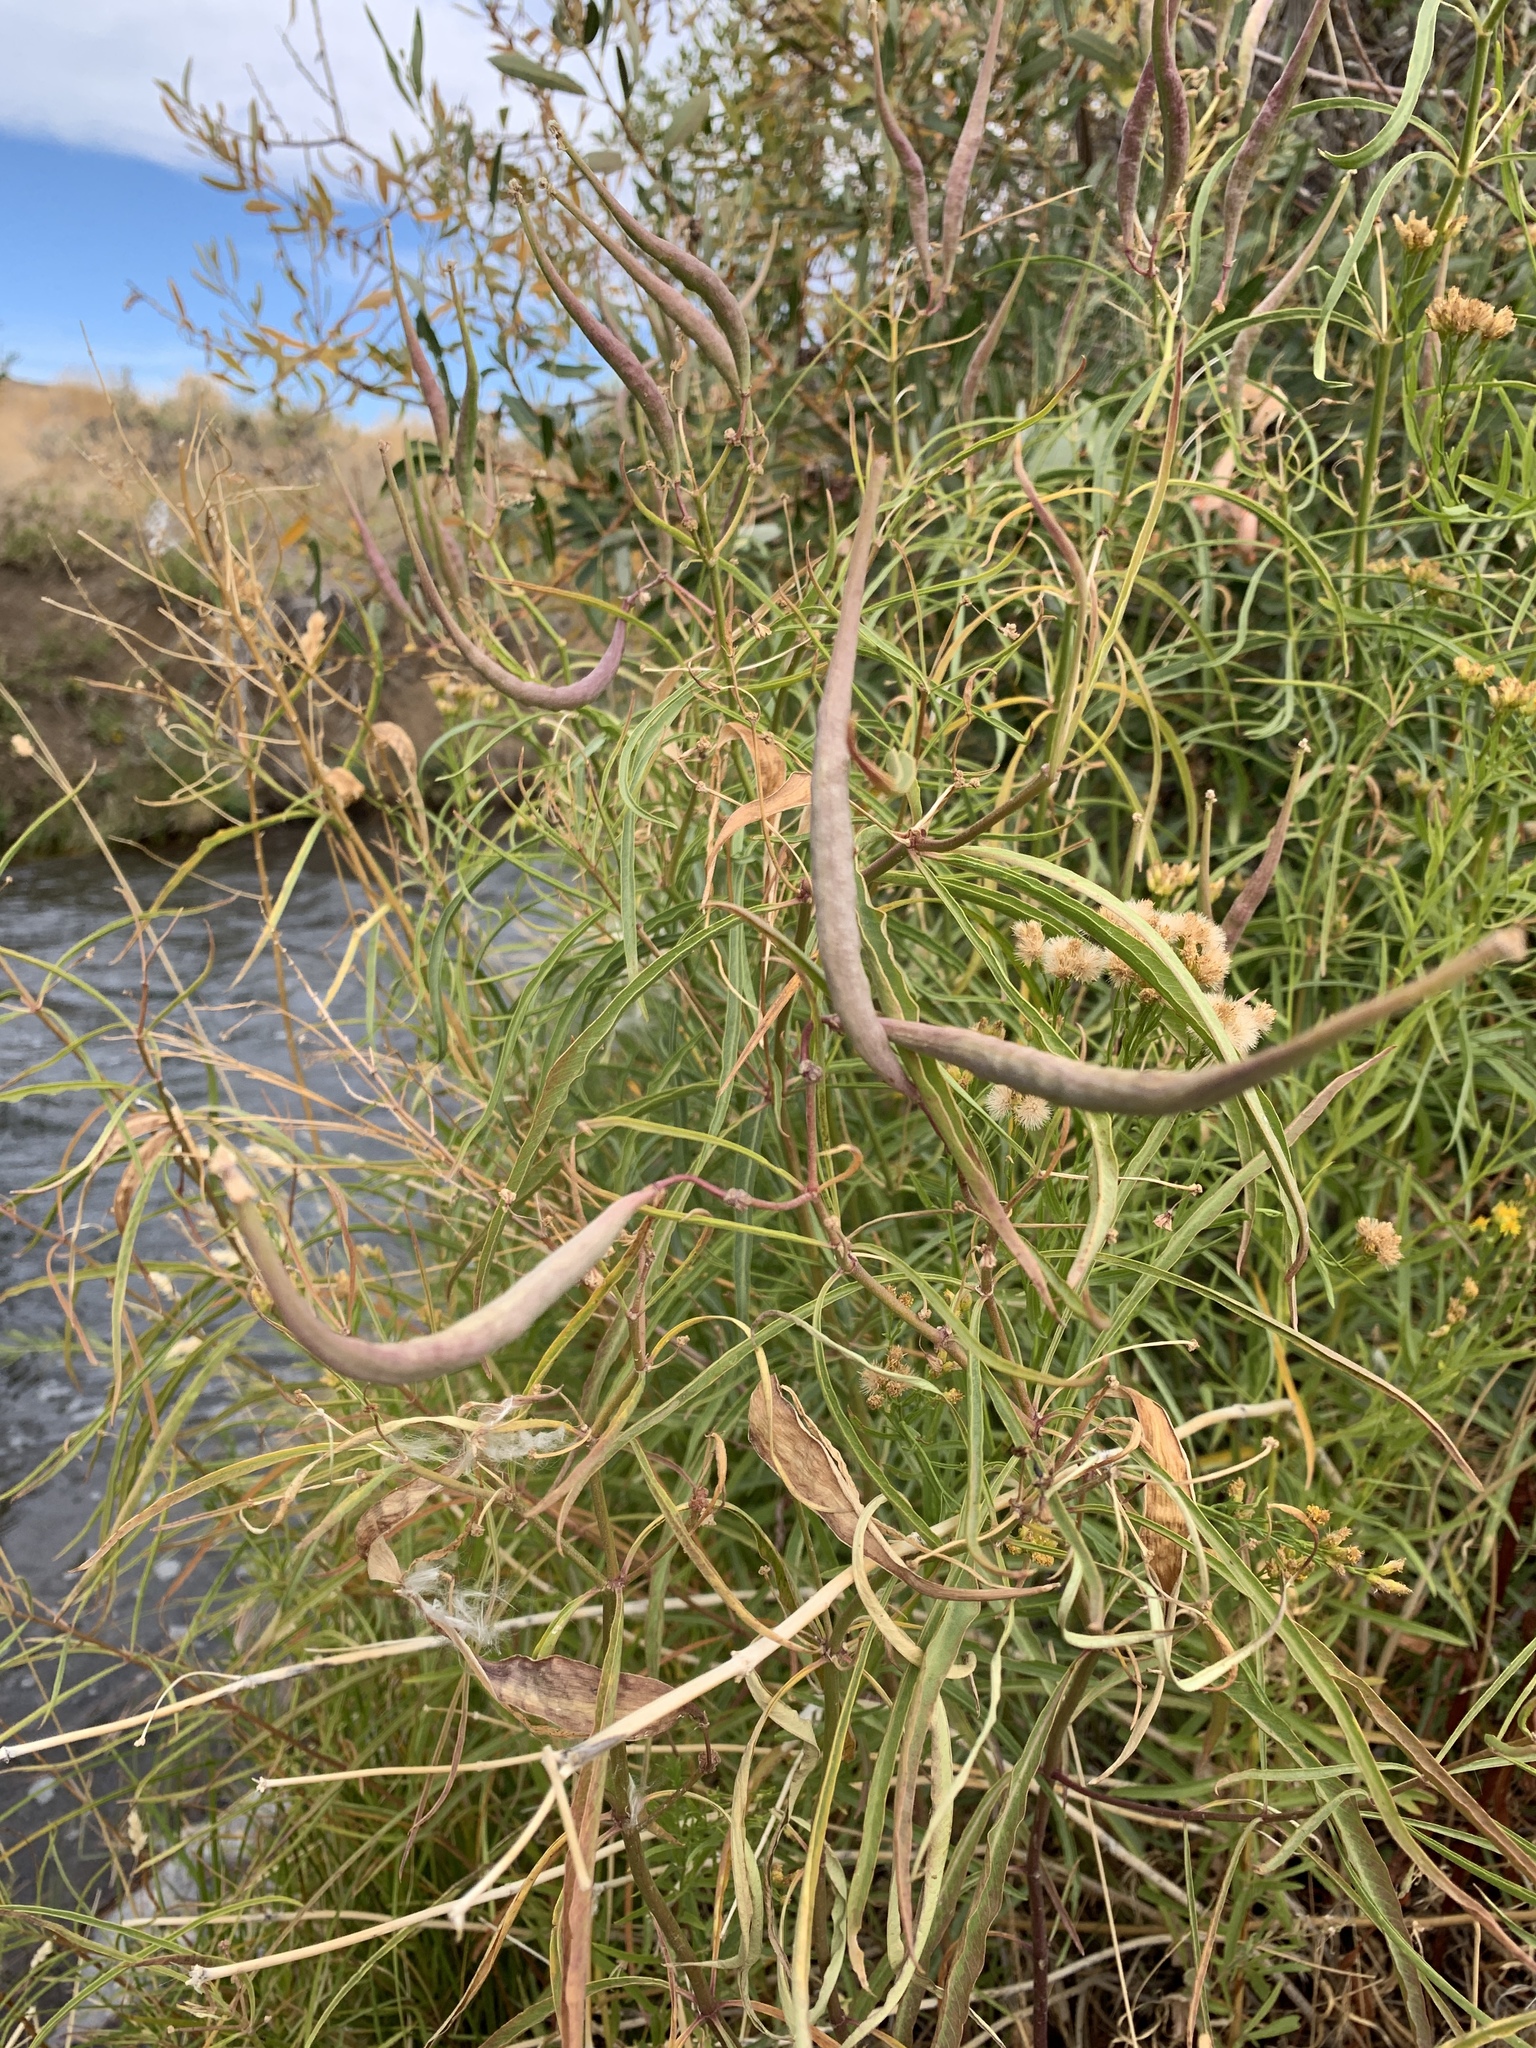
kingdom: Plantae
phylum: Tracheophyta
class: Magnoliopsida
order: Gentianales
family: Apocynaceae
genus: Asclepias
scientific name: Asclepias fascicularis
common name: Mexican milkweed
